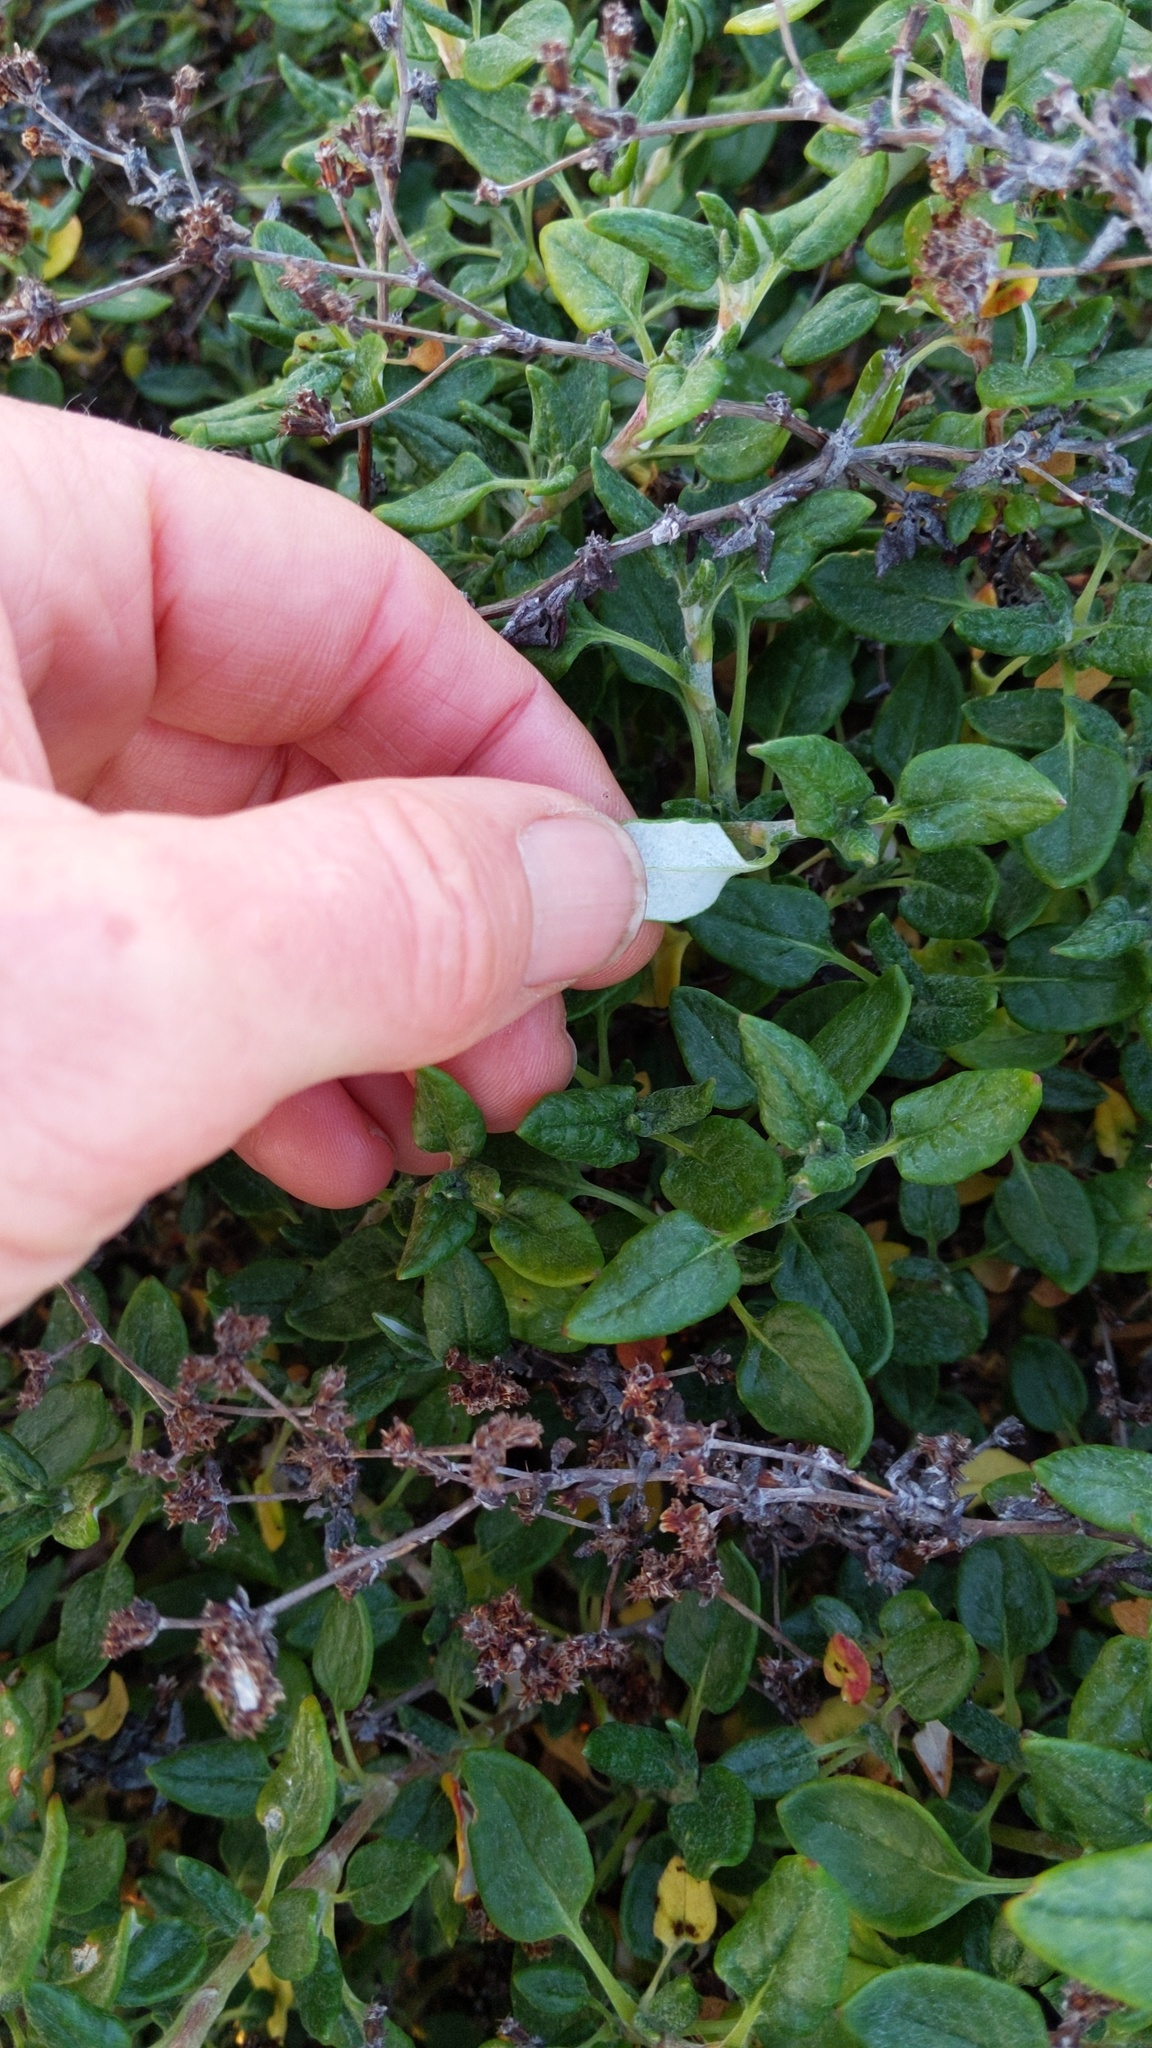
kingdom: Plantae
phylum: Tracheophyta
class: Magnoliopsida
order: Caryophyllales
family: Polygonaceae
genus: Eriogonum
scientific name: Eriogonum parvifolium
